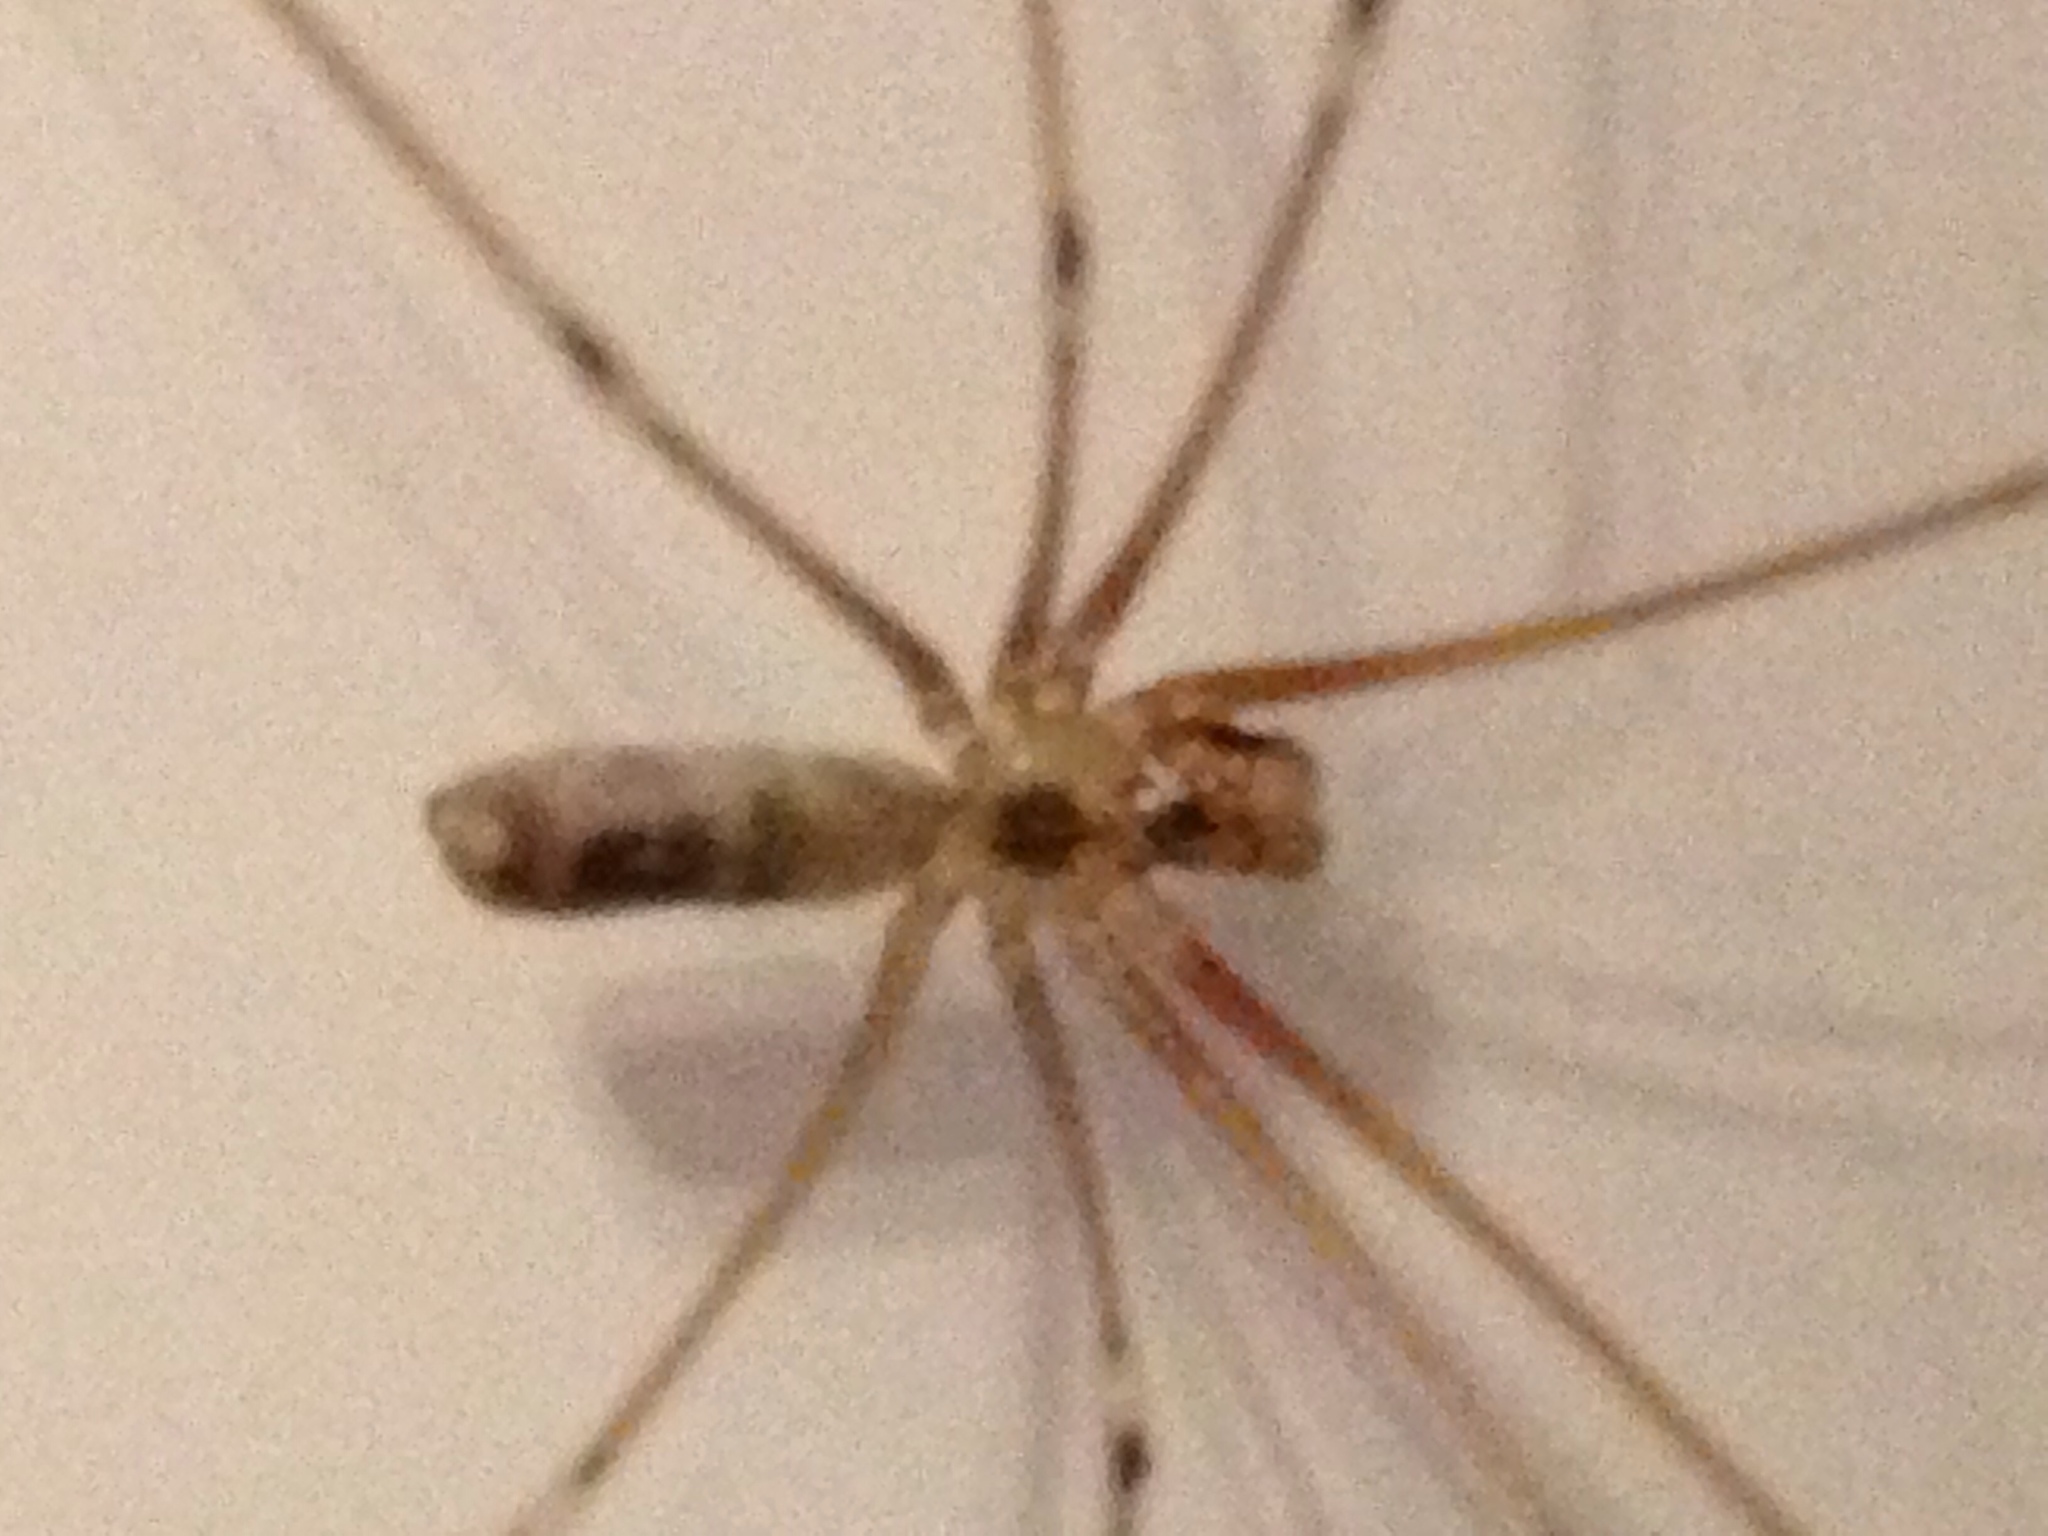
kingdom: Animalia
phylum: Arthropoda
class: Arachnida
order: Araneae
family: Pholcidae
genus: Pholcus
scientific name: Pholcus phalangioides
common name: Longbodied cellar spider
